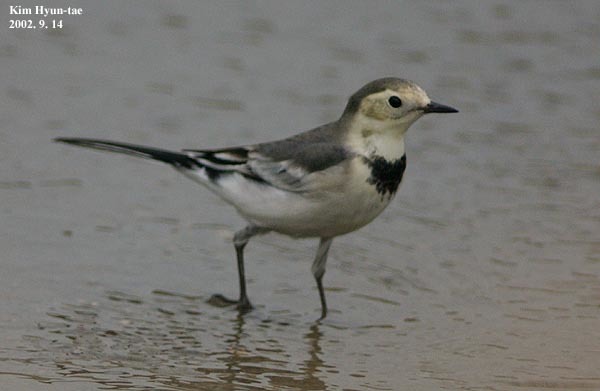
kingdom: Animalia
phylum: Chordata
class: Aves
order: Passeriformes
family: Motacillidae
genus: Motacilla
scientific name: Motacilla alba
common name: White wagtail
